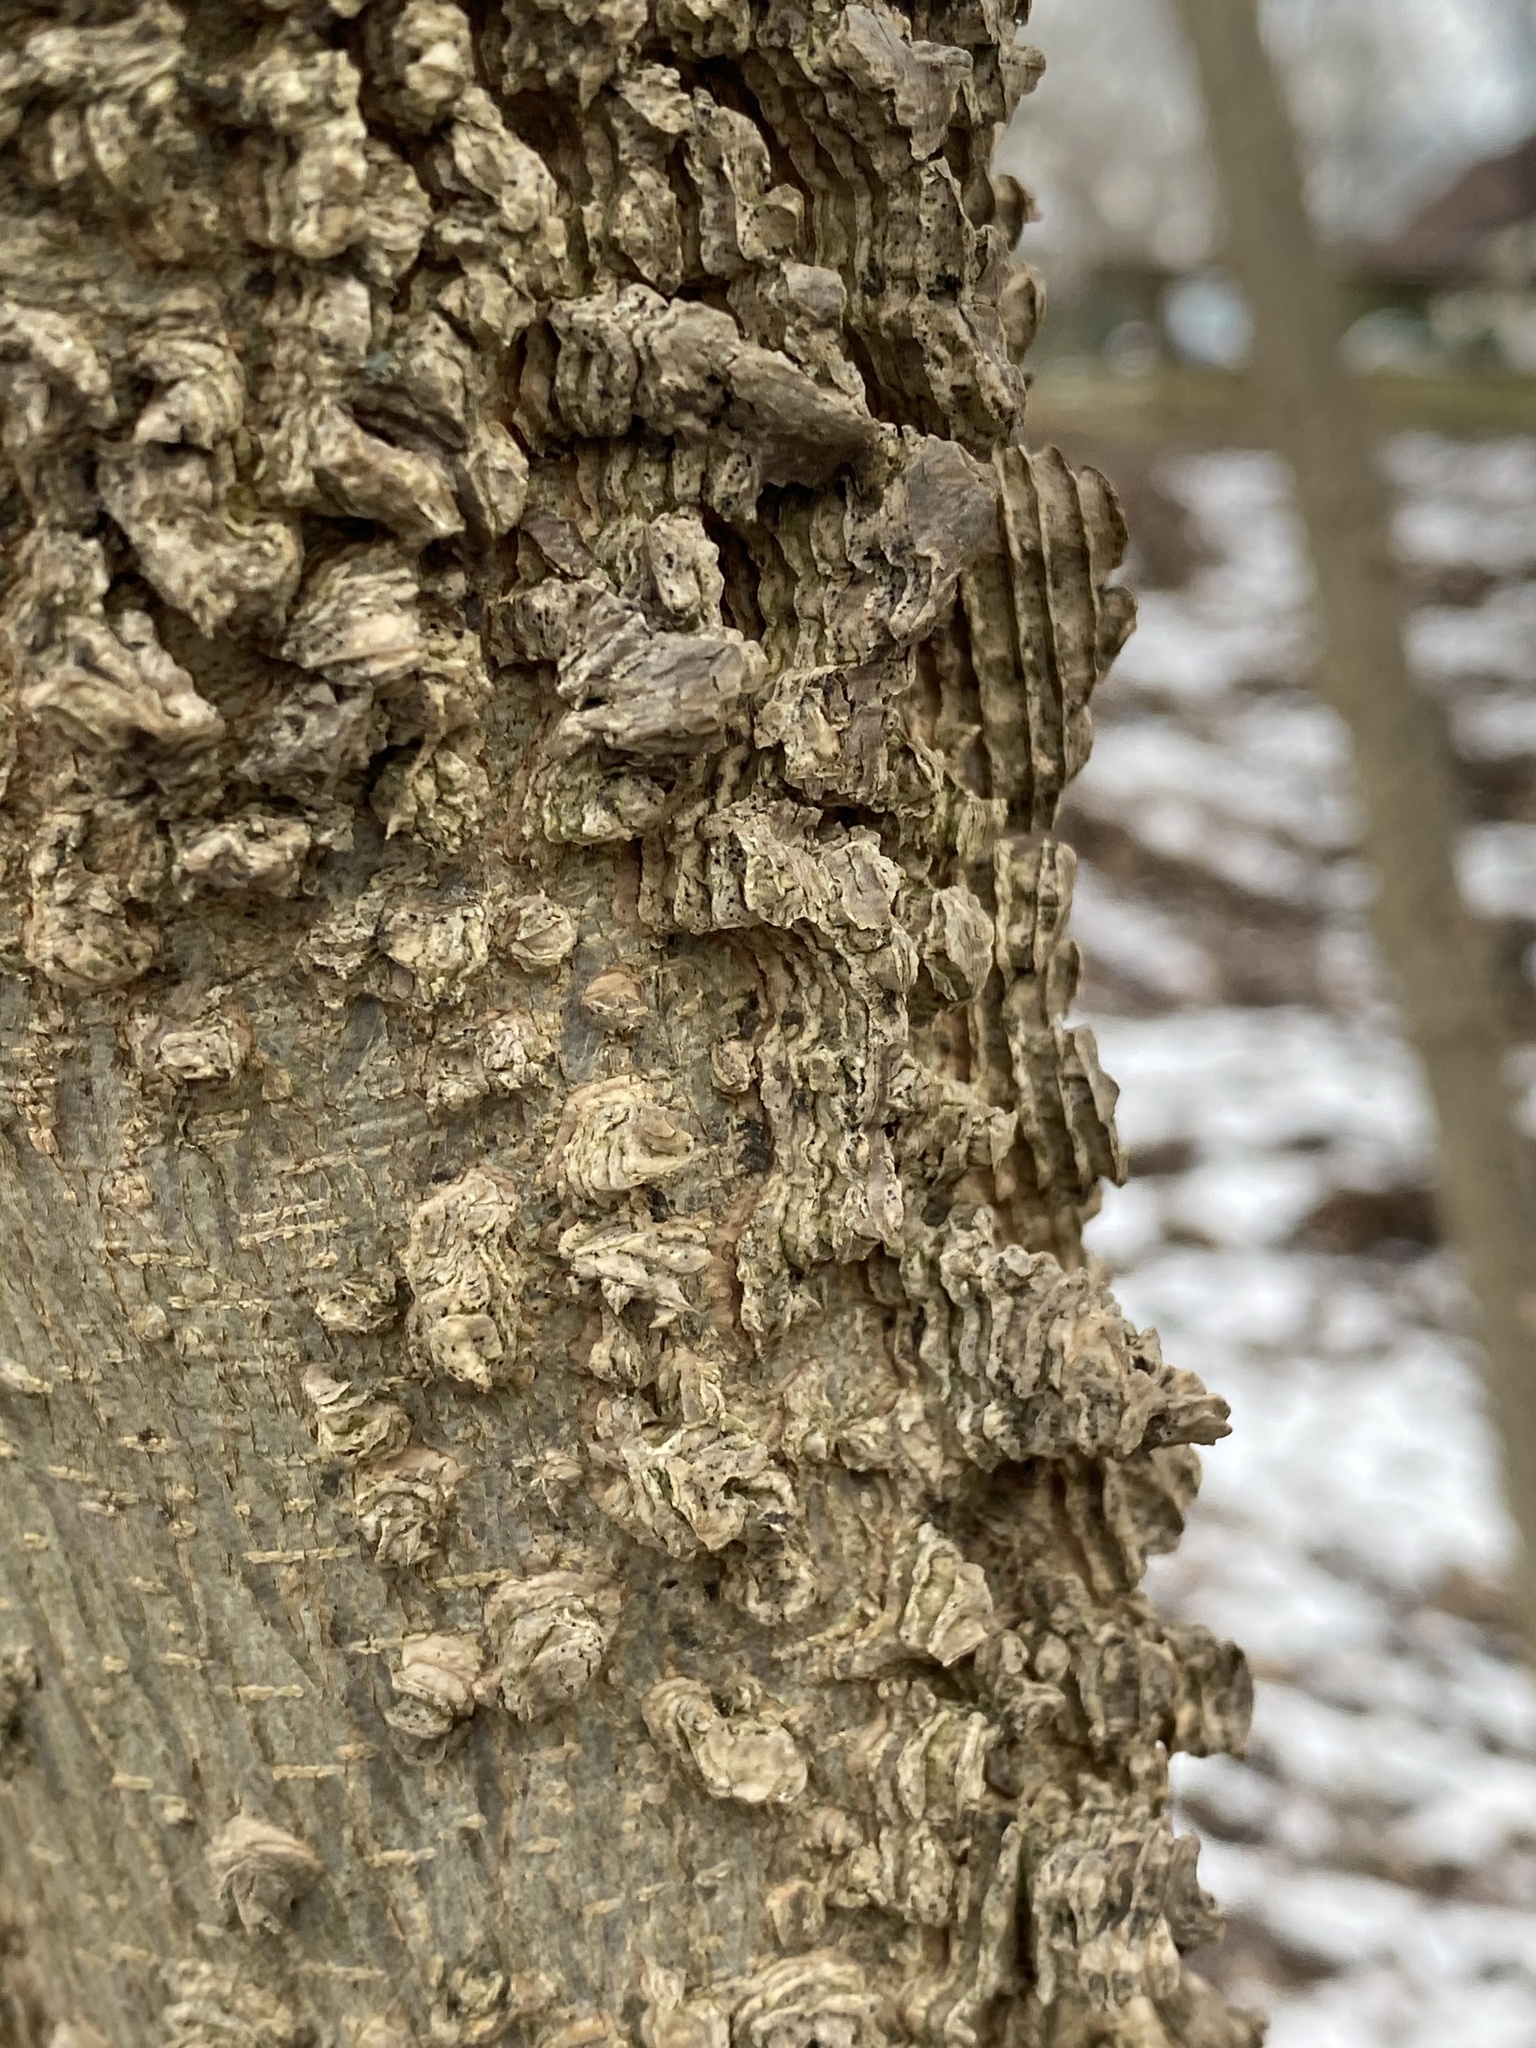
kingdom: Plantae
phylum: Tracheophyta
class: Magnoliopsida
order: Rosales
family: Cannabaceae
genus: Celtis
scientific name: Celtis occidentalis
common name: Common hackberry
